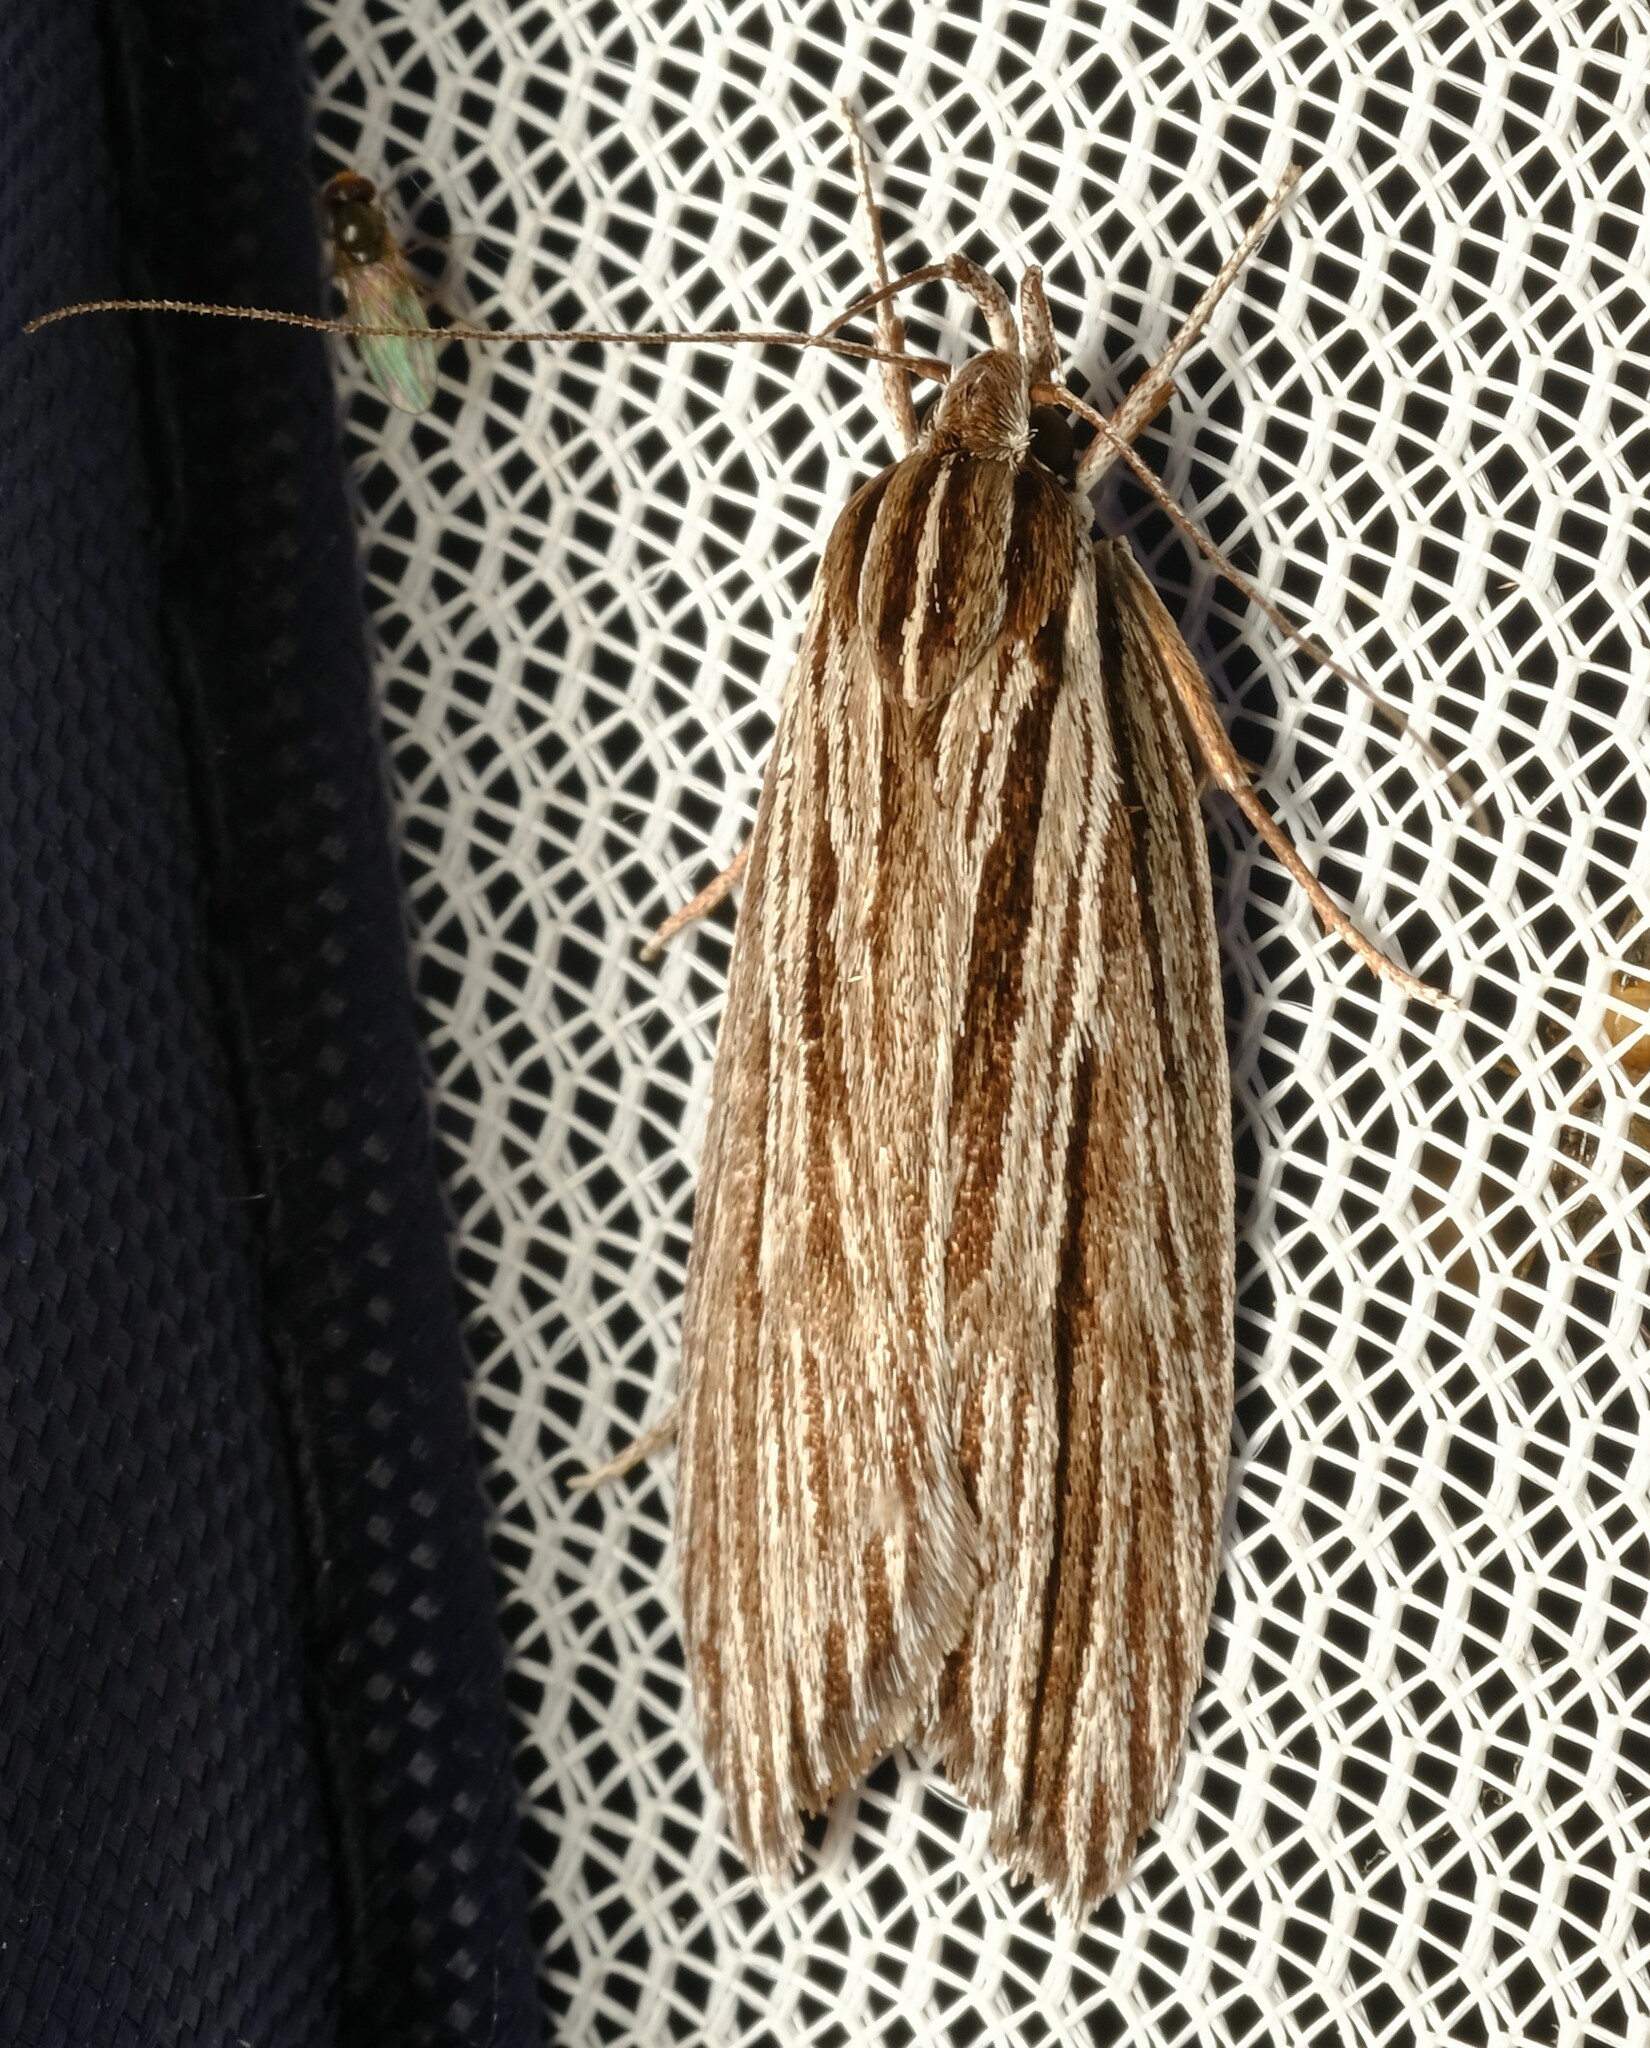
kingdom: Animalia
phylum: Arthropoda
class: Insecta
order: Lepidoptera
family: Xyloryctidae
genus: Leistarcha
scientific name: Leistarcha scitissimella
